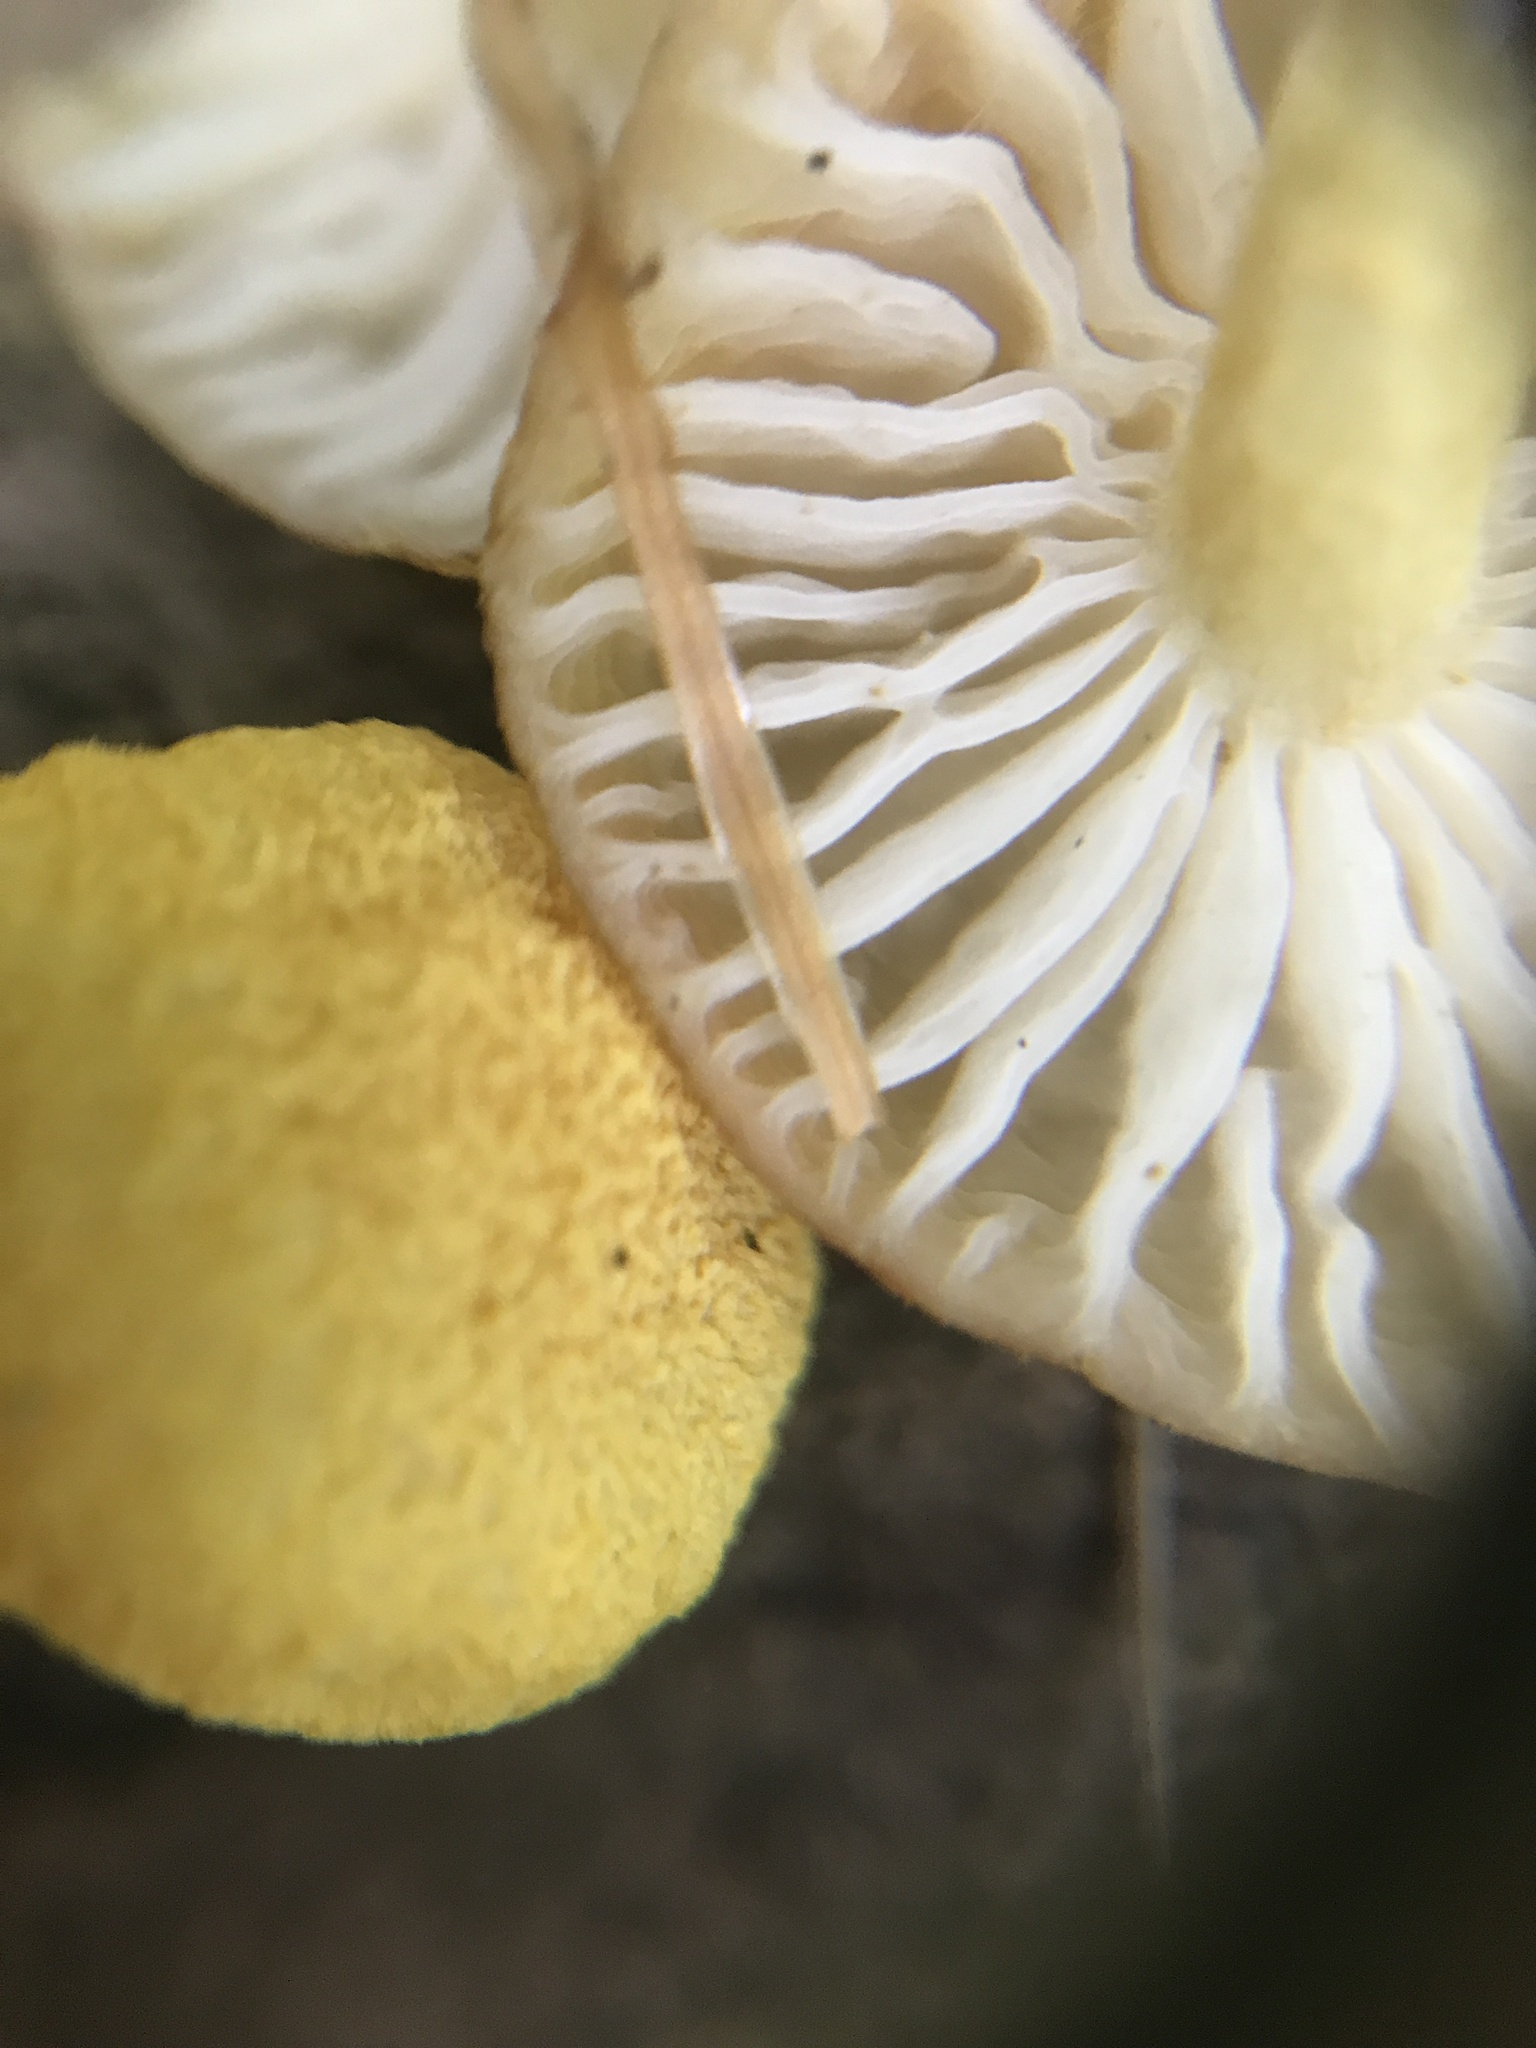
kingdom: Fungi
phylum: Basidiomycota
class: Agaricomycetes
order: Agaricales
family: Physalacriaceae
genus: Cyptotrama
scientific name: Cyptotrama chrysopepla
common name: Golden coincap
